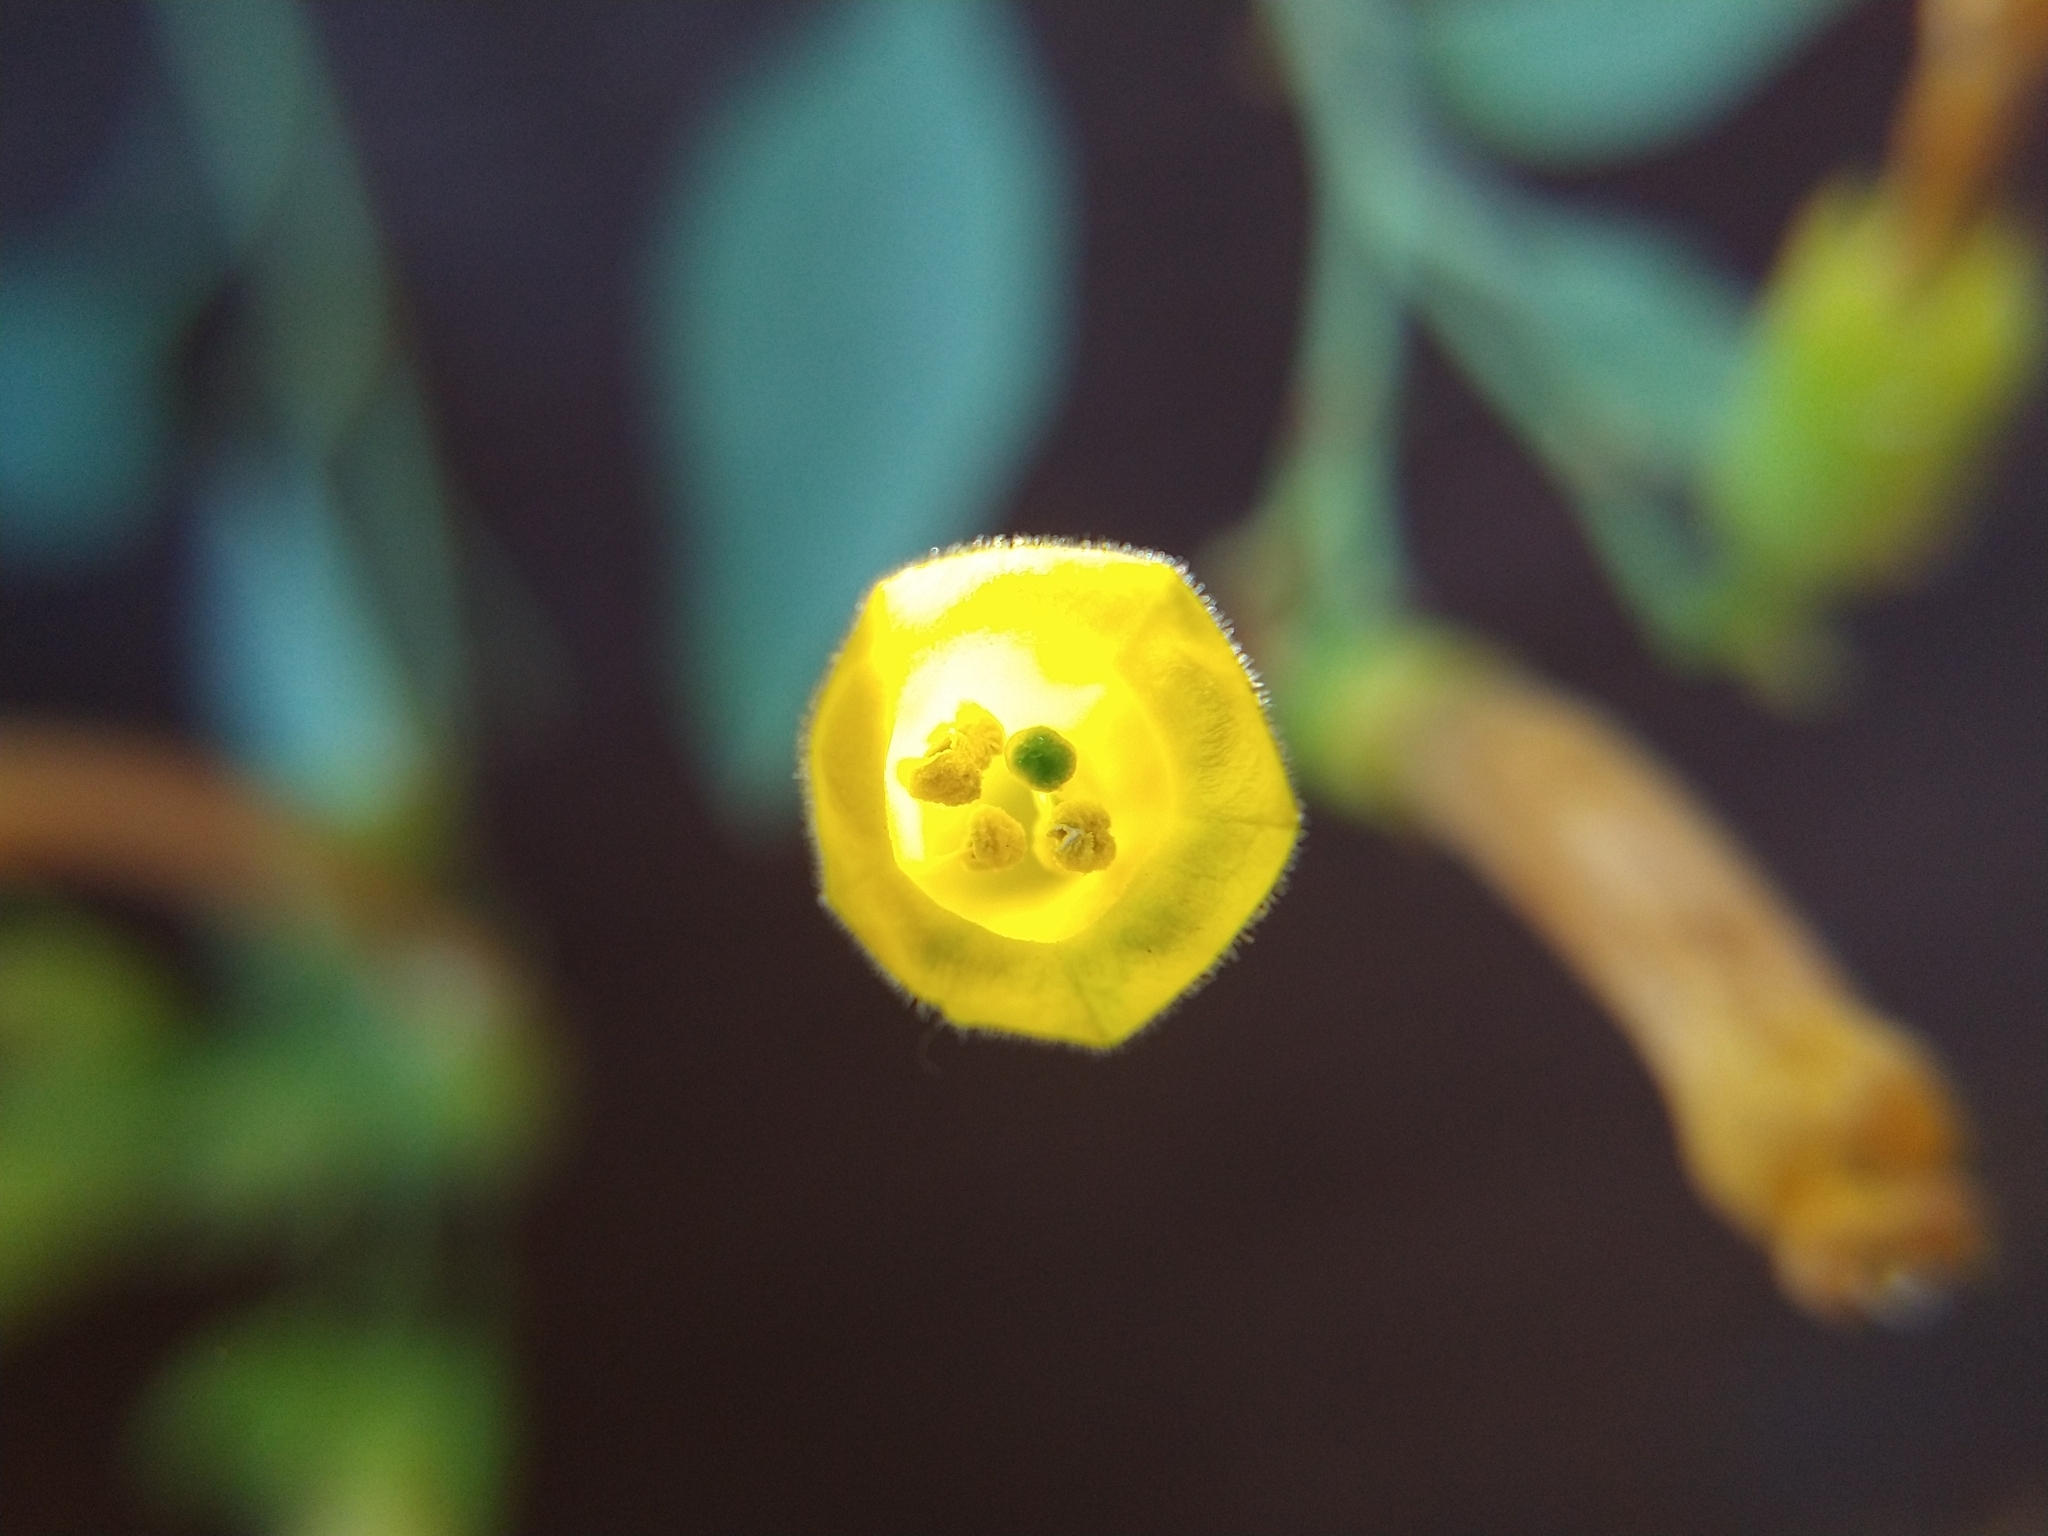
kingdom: Plantae
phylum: Tracheophyta
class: Magnoliopsida
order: Solanales
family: Solanaceae
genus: Nicotiana
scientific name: Nicotiana glauca
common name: Tree tobacco
